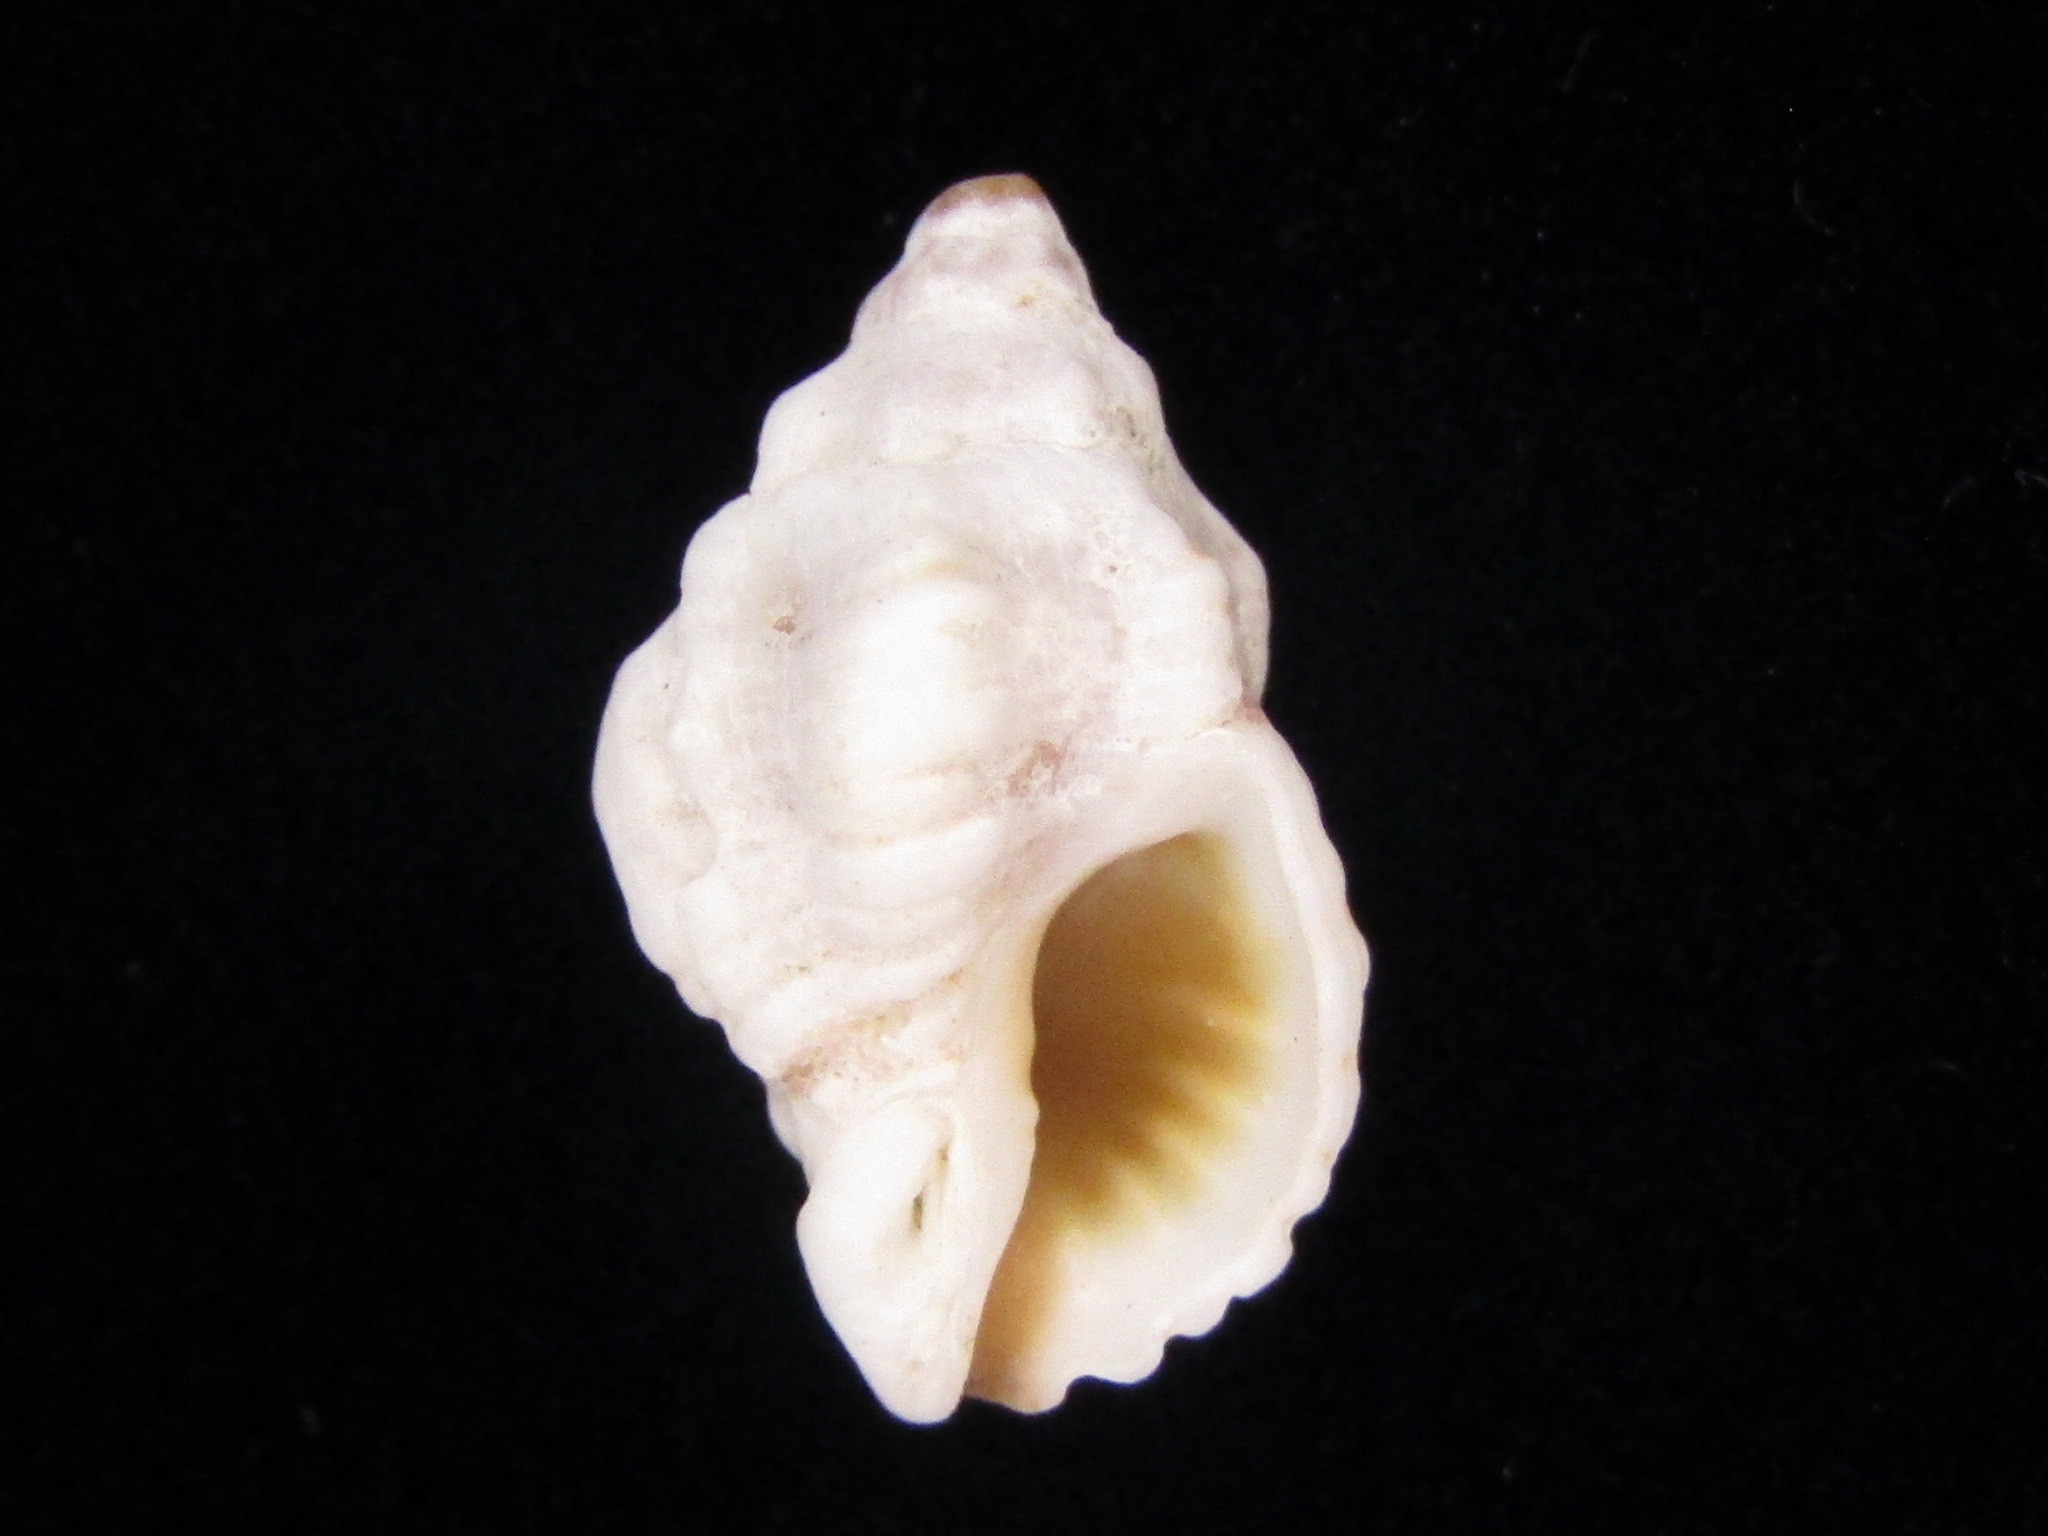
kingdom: Animalia
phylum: Mollusca
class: Gastropoda
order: Neogastropoda
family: Muricidae
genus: Pascula
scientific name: Pascula ochrostoma
